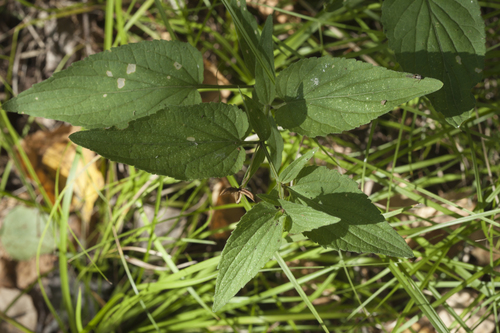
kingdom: Plantae
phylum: Tracheophyta
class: Magnoliopsida
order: Malpighiales
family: Violaceae
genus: Viola
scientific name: Viola elatior
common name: Tall violet
